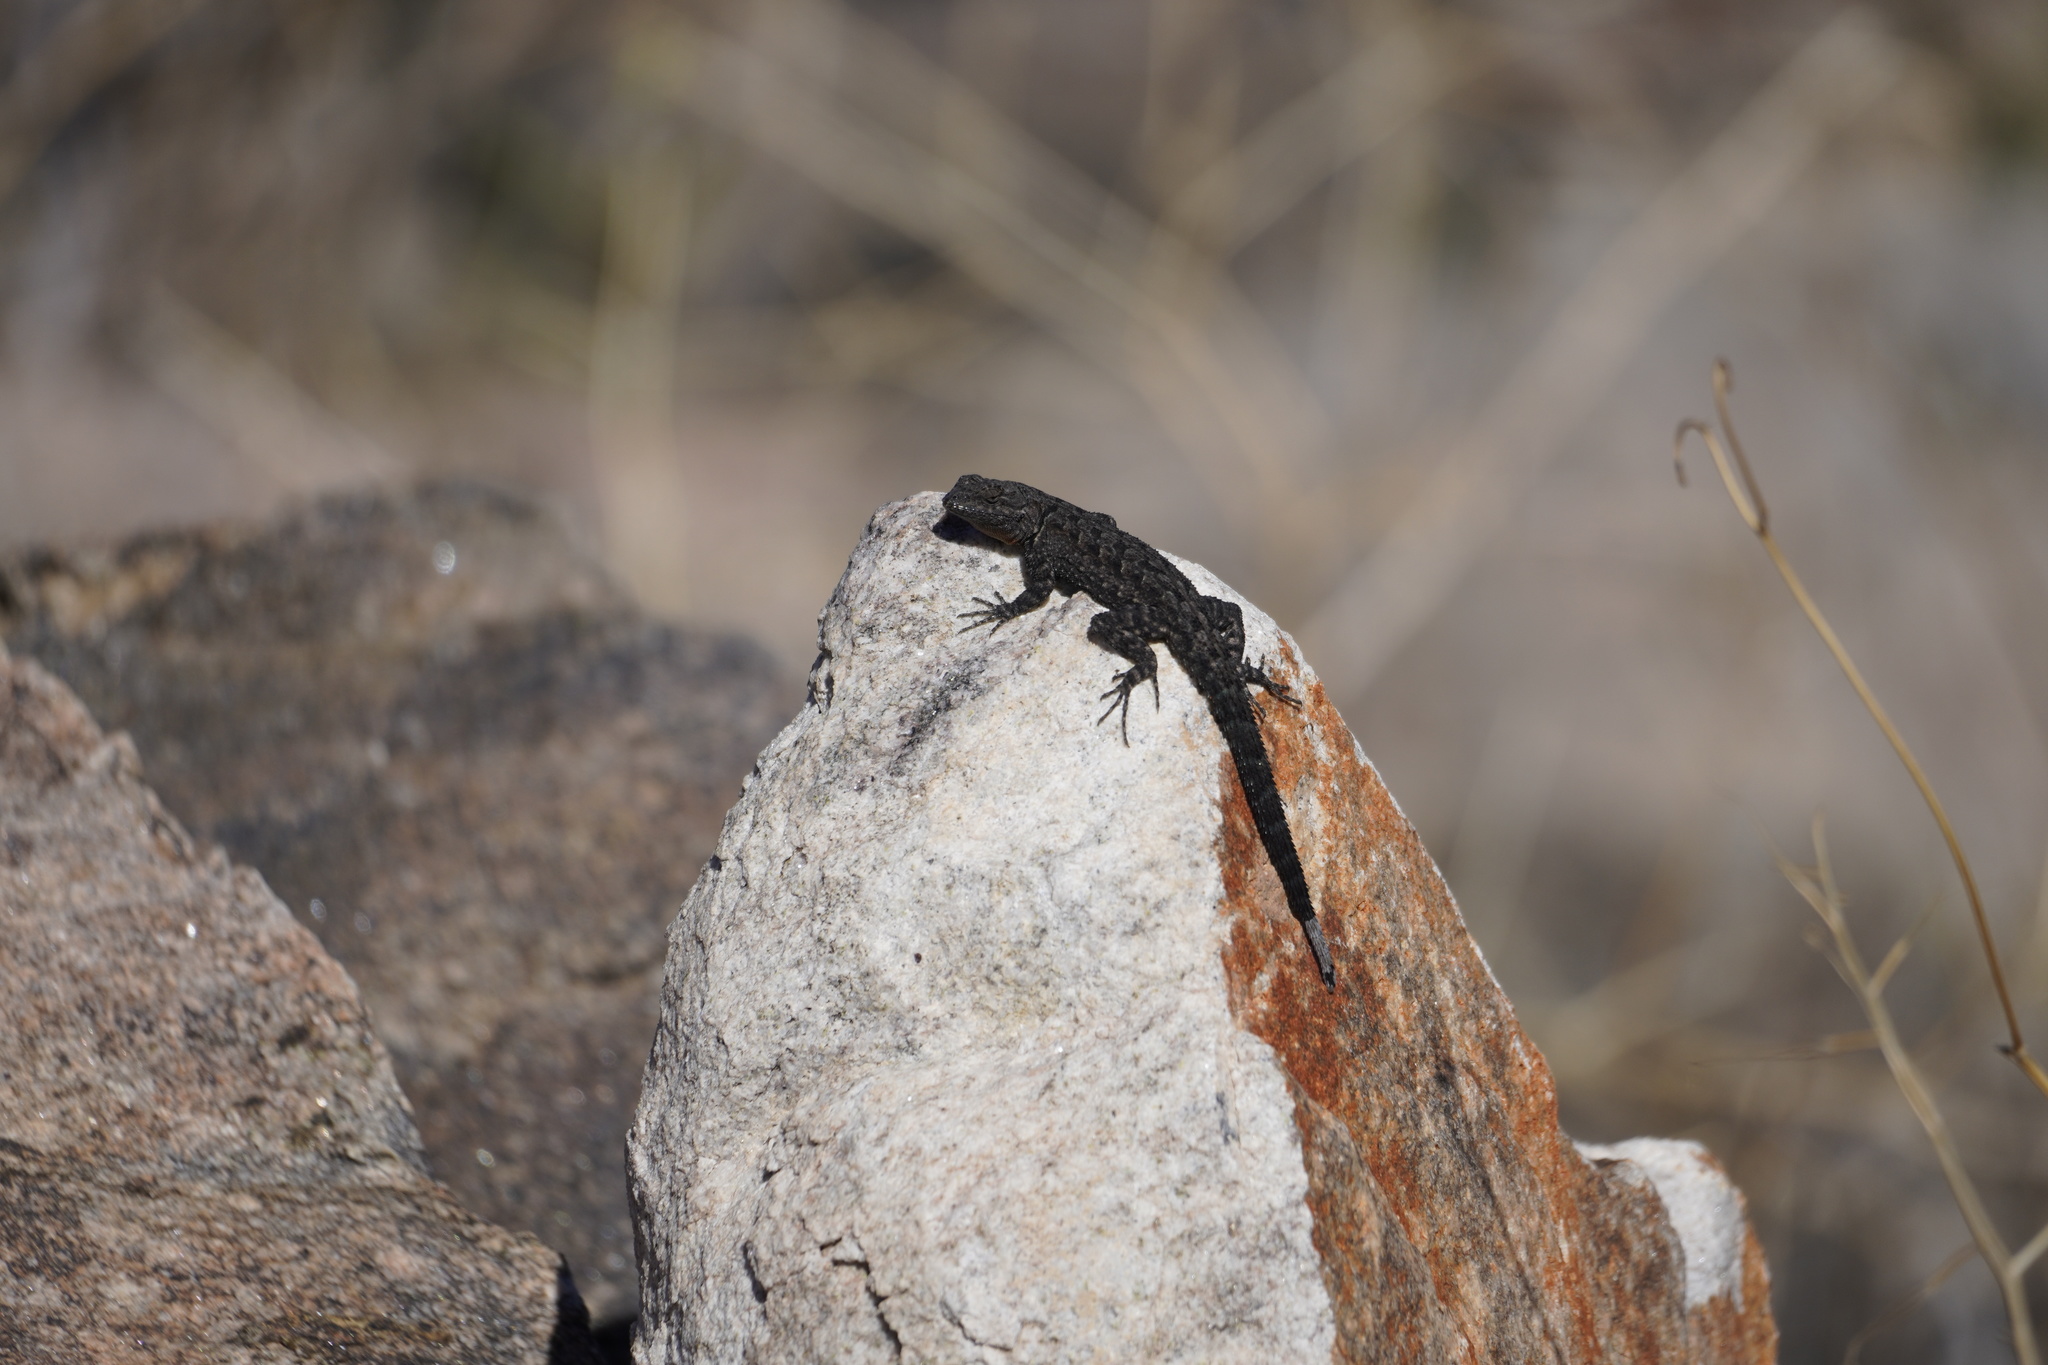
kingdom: Animalia
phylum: Chordata
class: Squamata
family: Phrynosomatidae
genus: Urosaurus
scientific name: Urosaurus ornatus
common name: Ornate tree lizard
